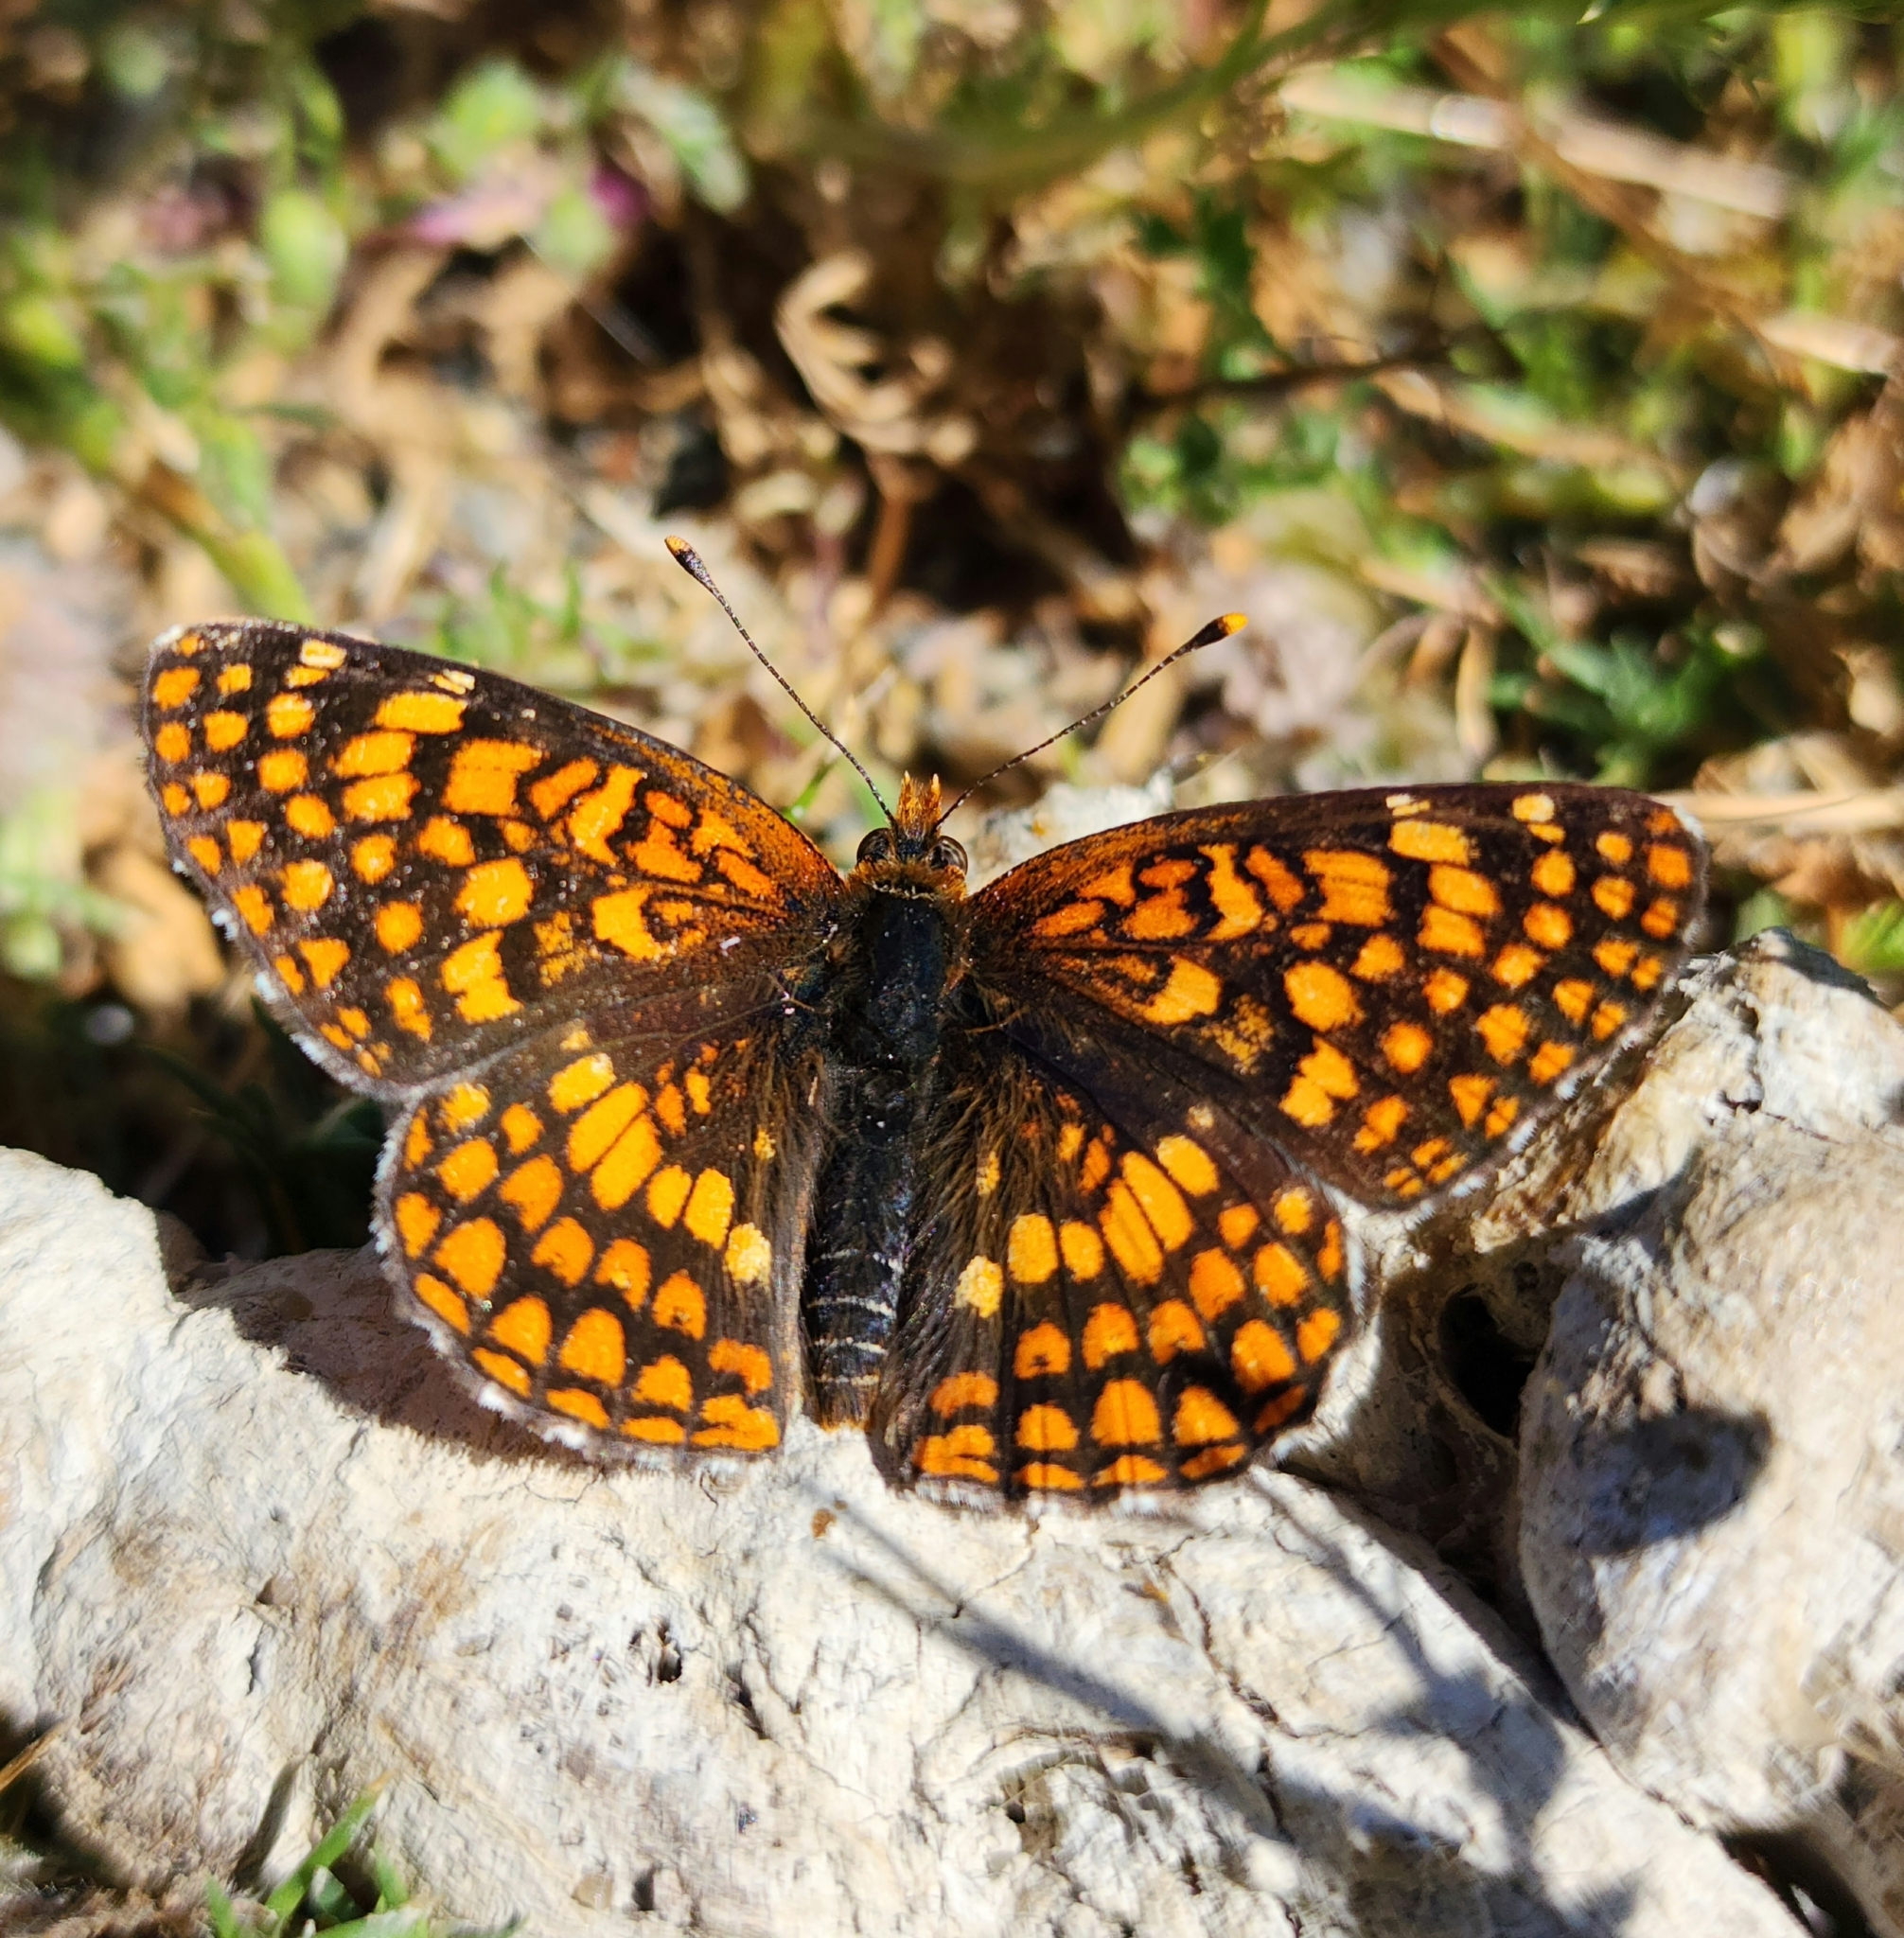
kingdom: Animalia
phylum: Arthropoda
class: Insecta
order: Lepidoptera
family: Nymphalidae
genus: Chlosyne
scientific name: Chlosyne palla
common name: Northern checkerspot
